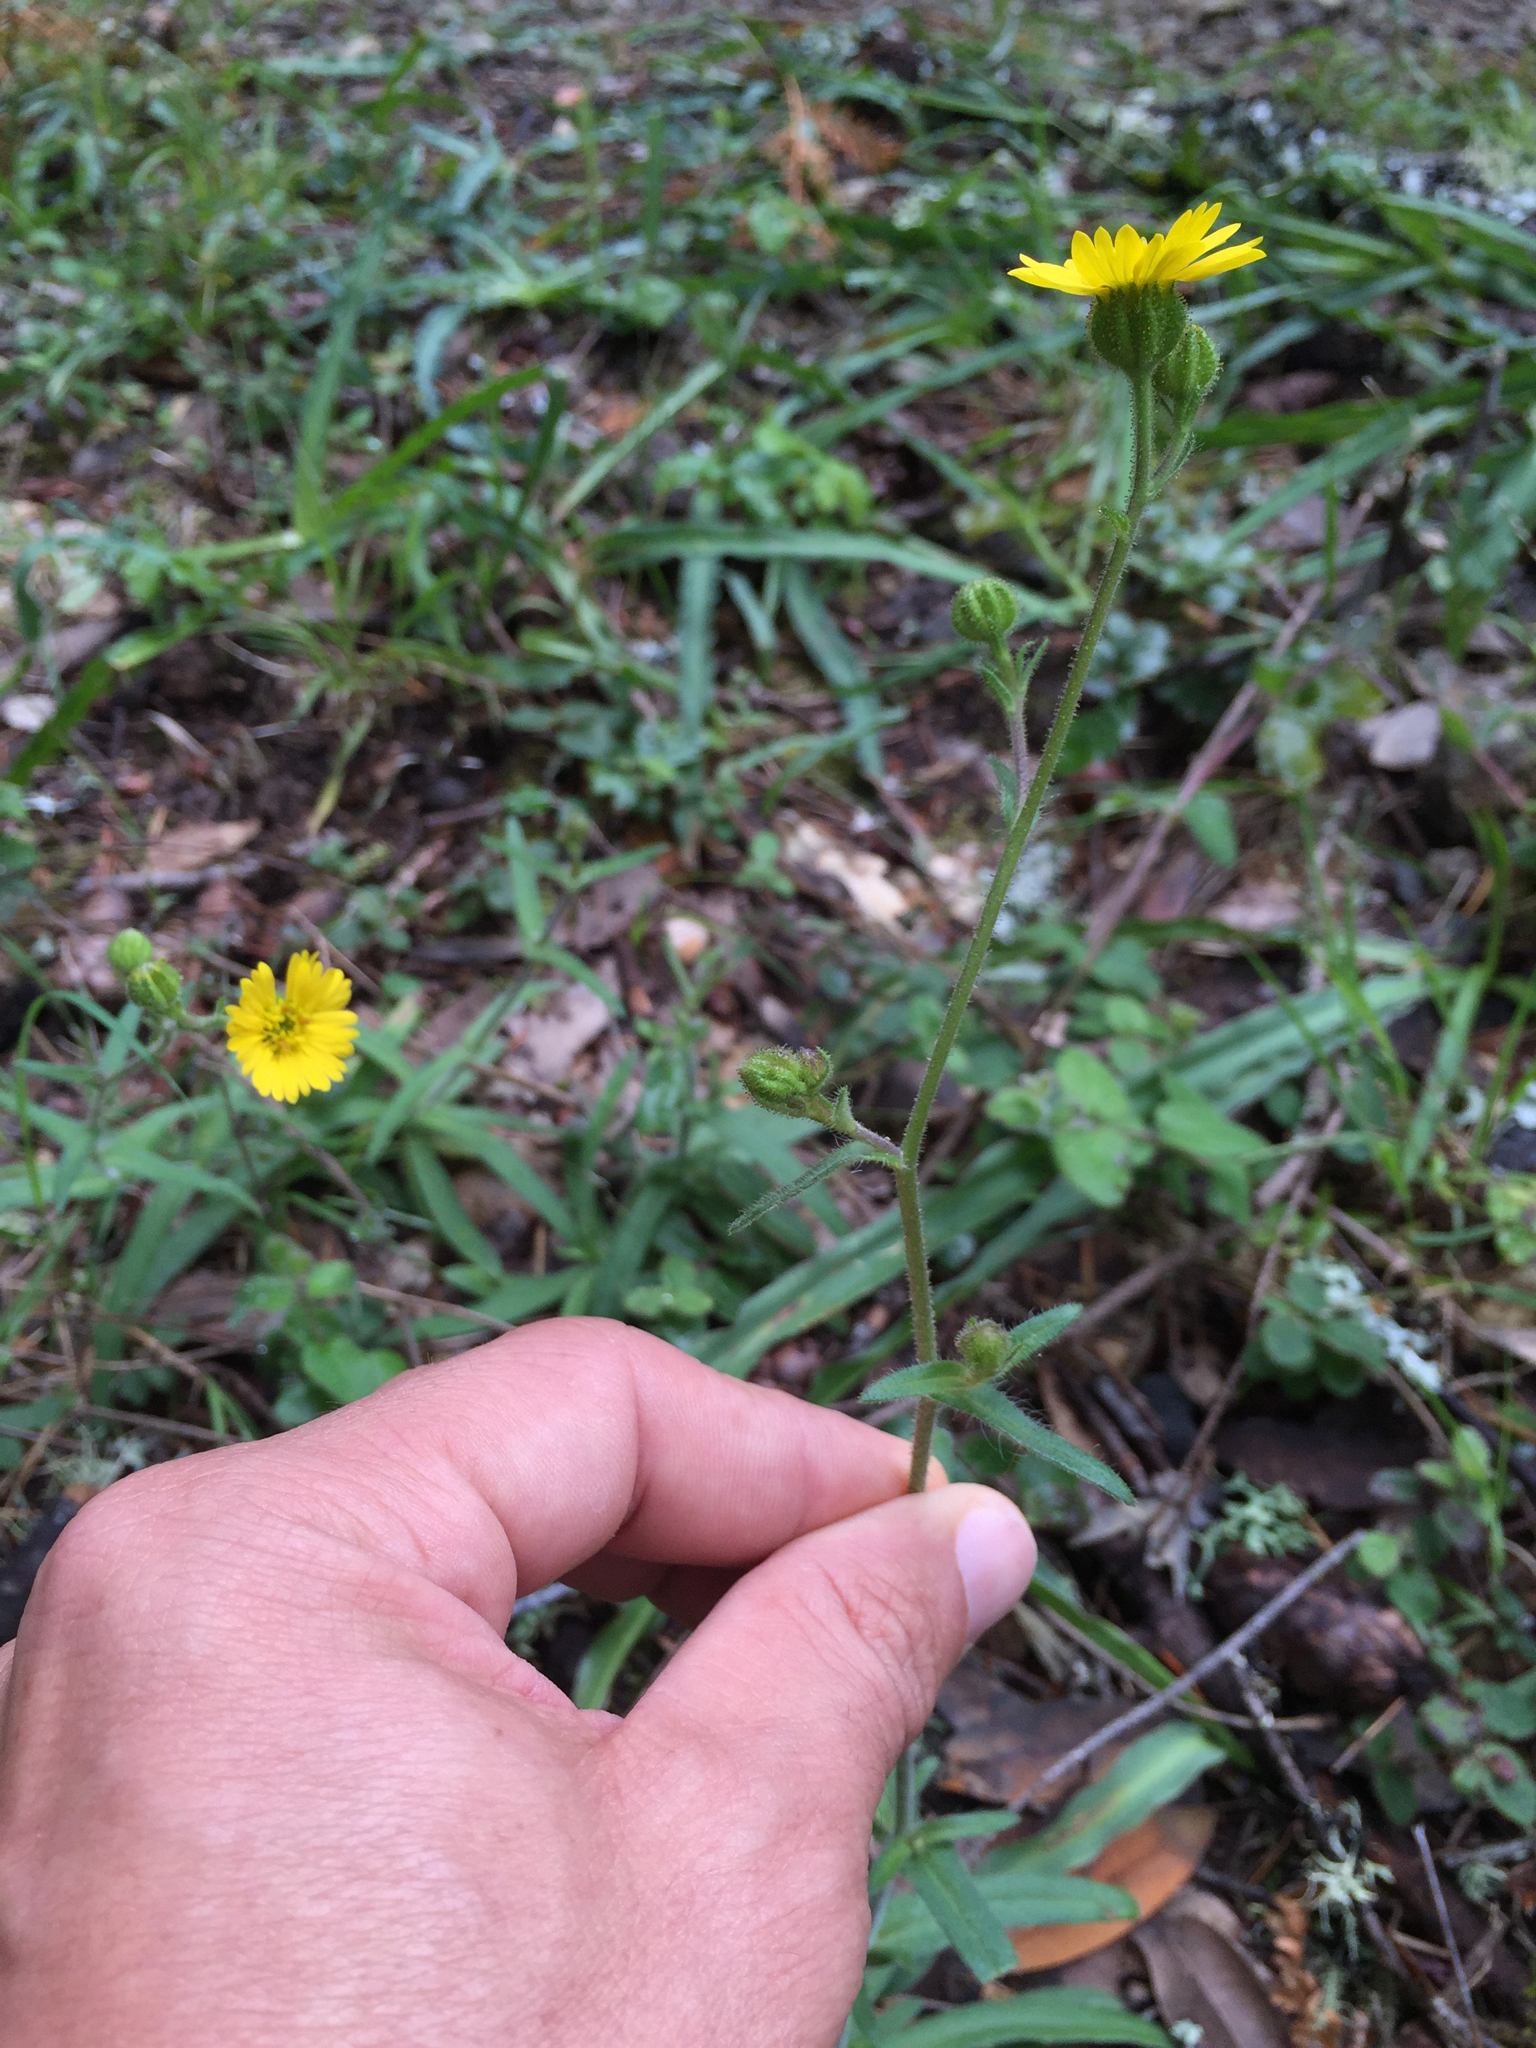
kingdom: Plantae
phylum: Tracheophyta
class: Magnoliopsida
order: Asterales
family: Asteraceae
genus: Anisocarpus
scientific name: Anisocarpus madioides
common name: Woodland madia
